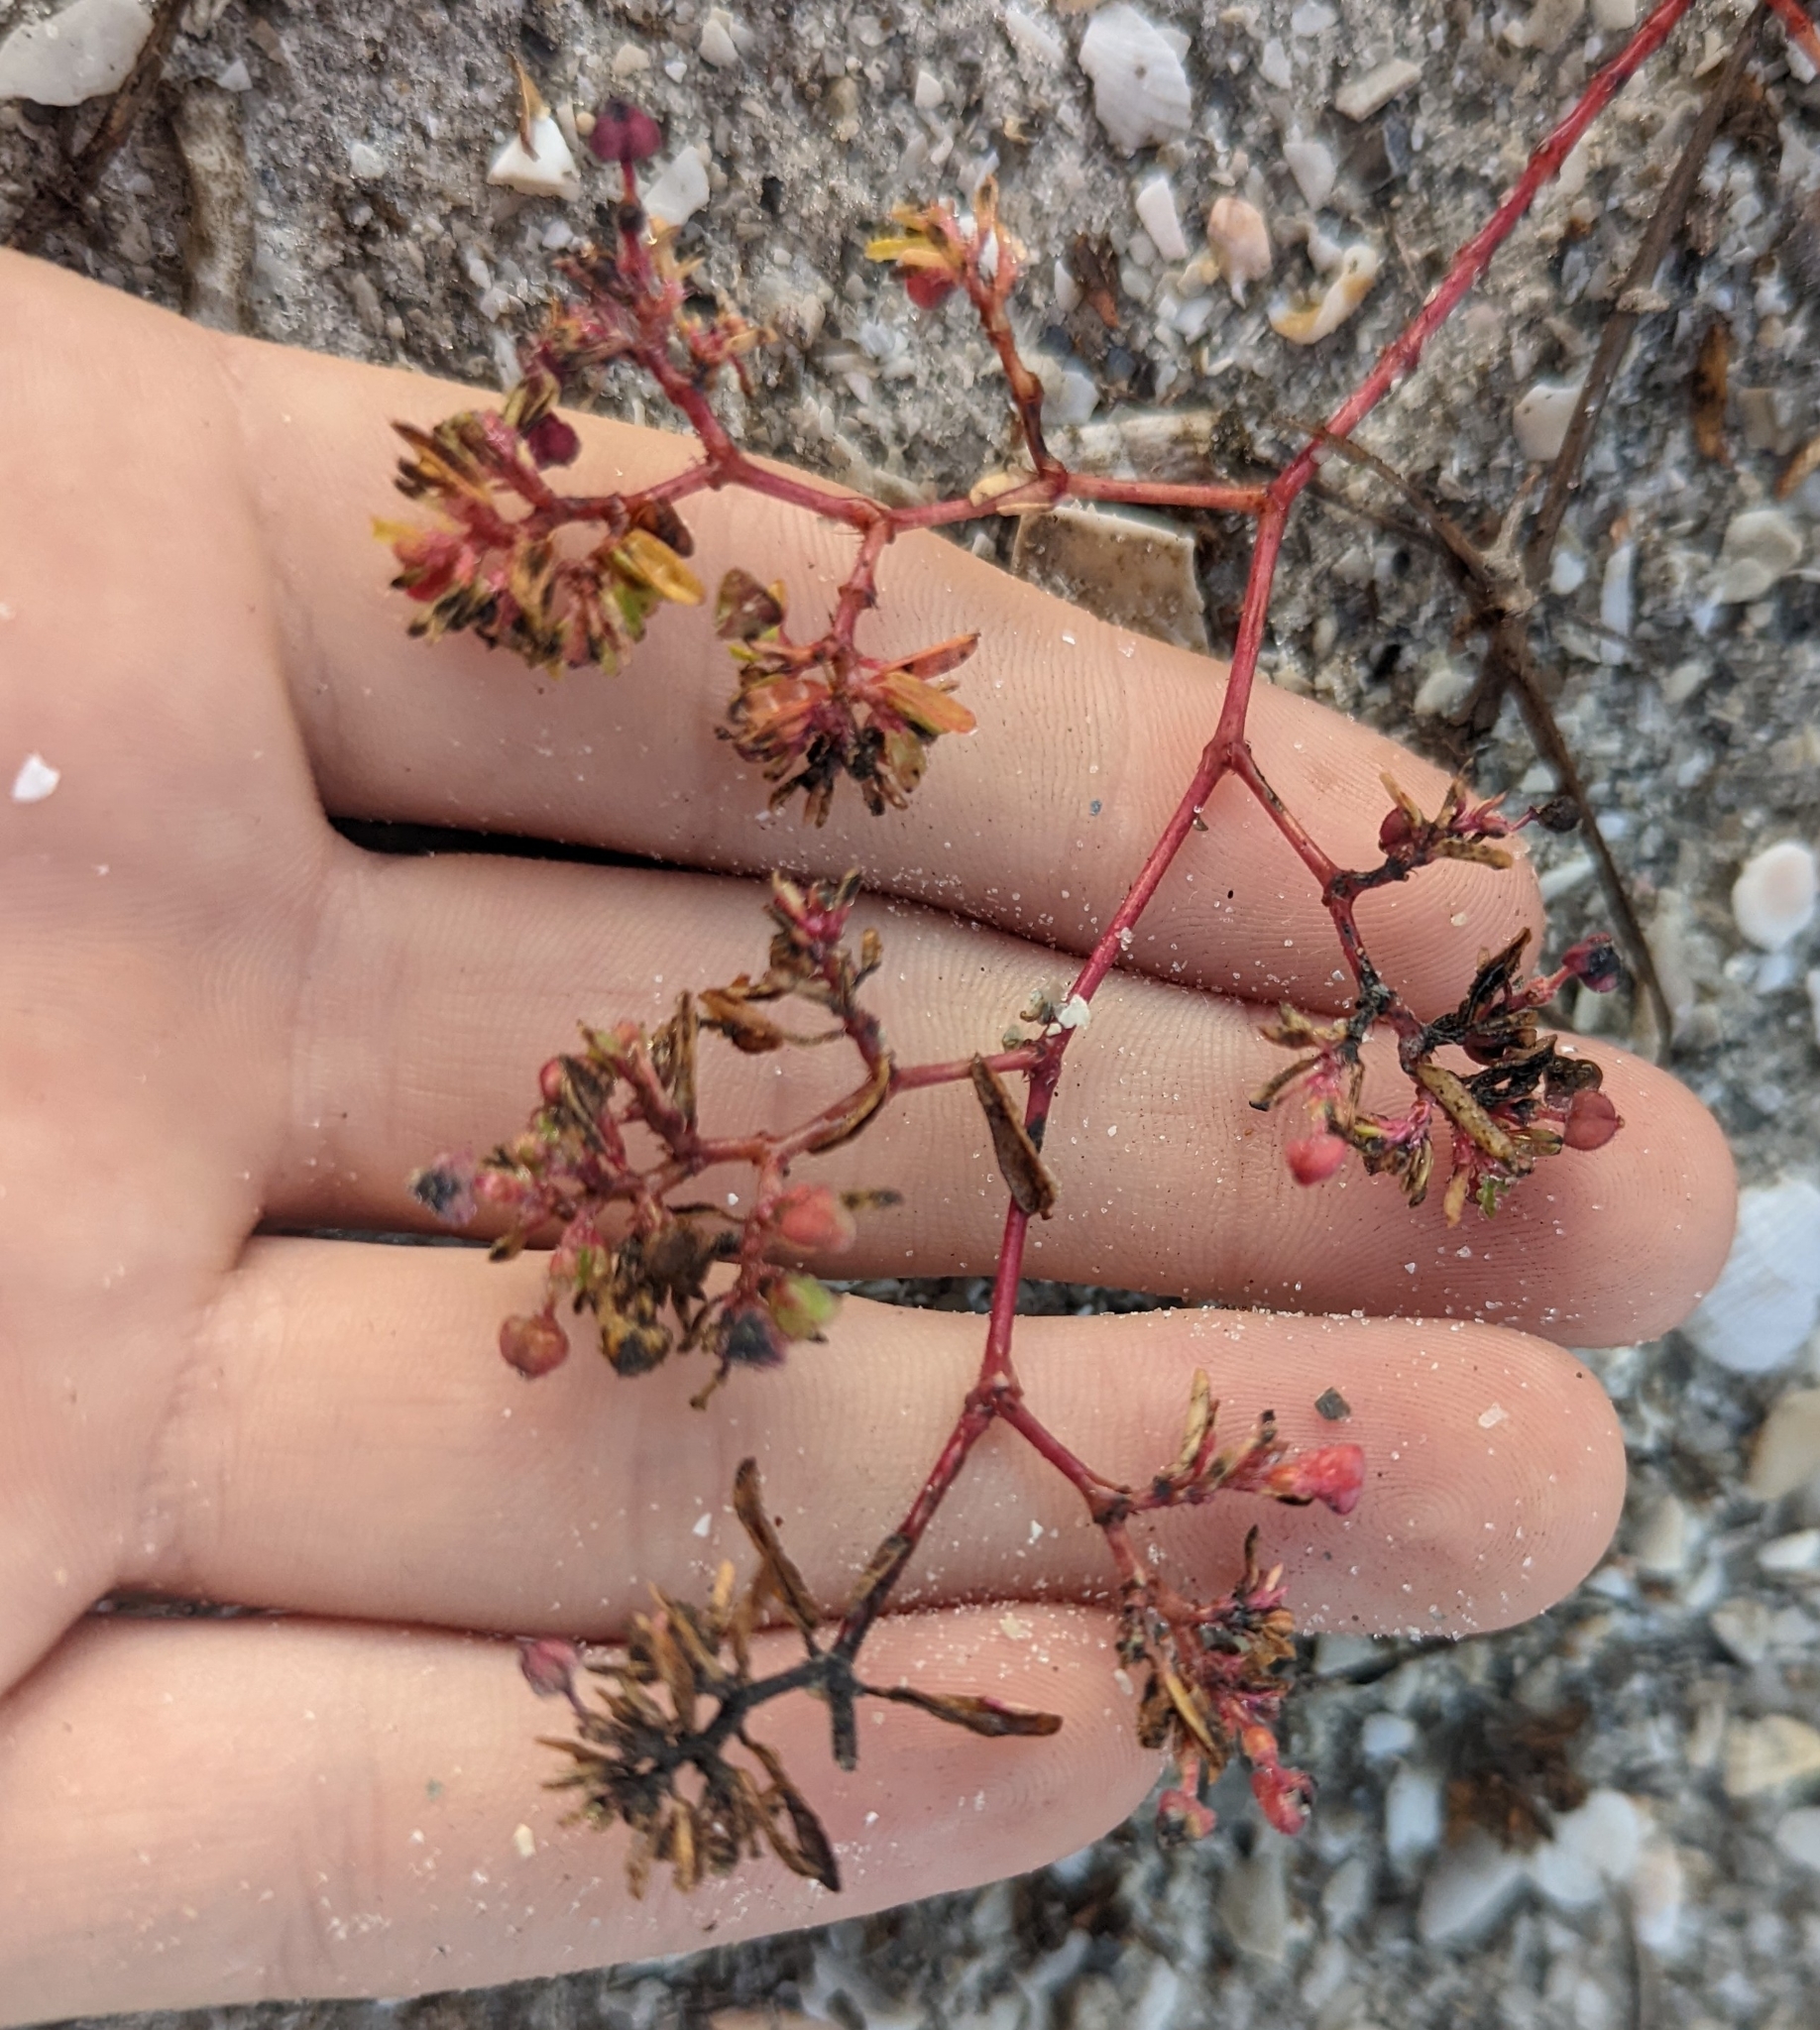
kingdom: Plantae
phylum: Tracheophyta
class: Magnoliopsida
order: Malpighiales
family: Euphorbiaceae
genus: Euphorbia
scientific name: Euphorbia bombensis
